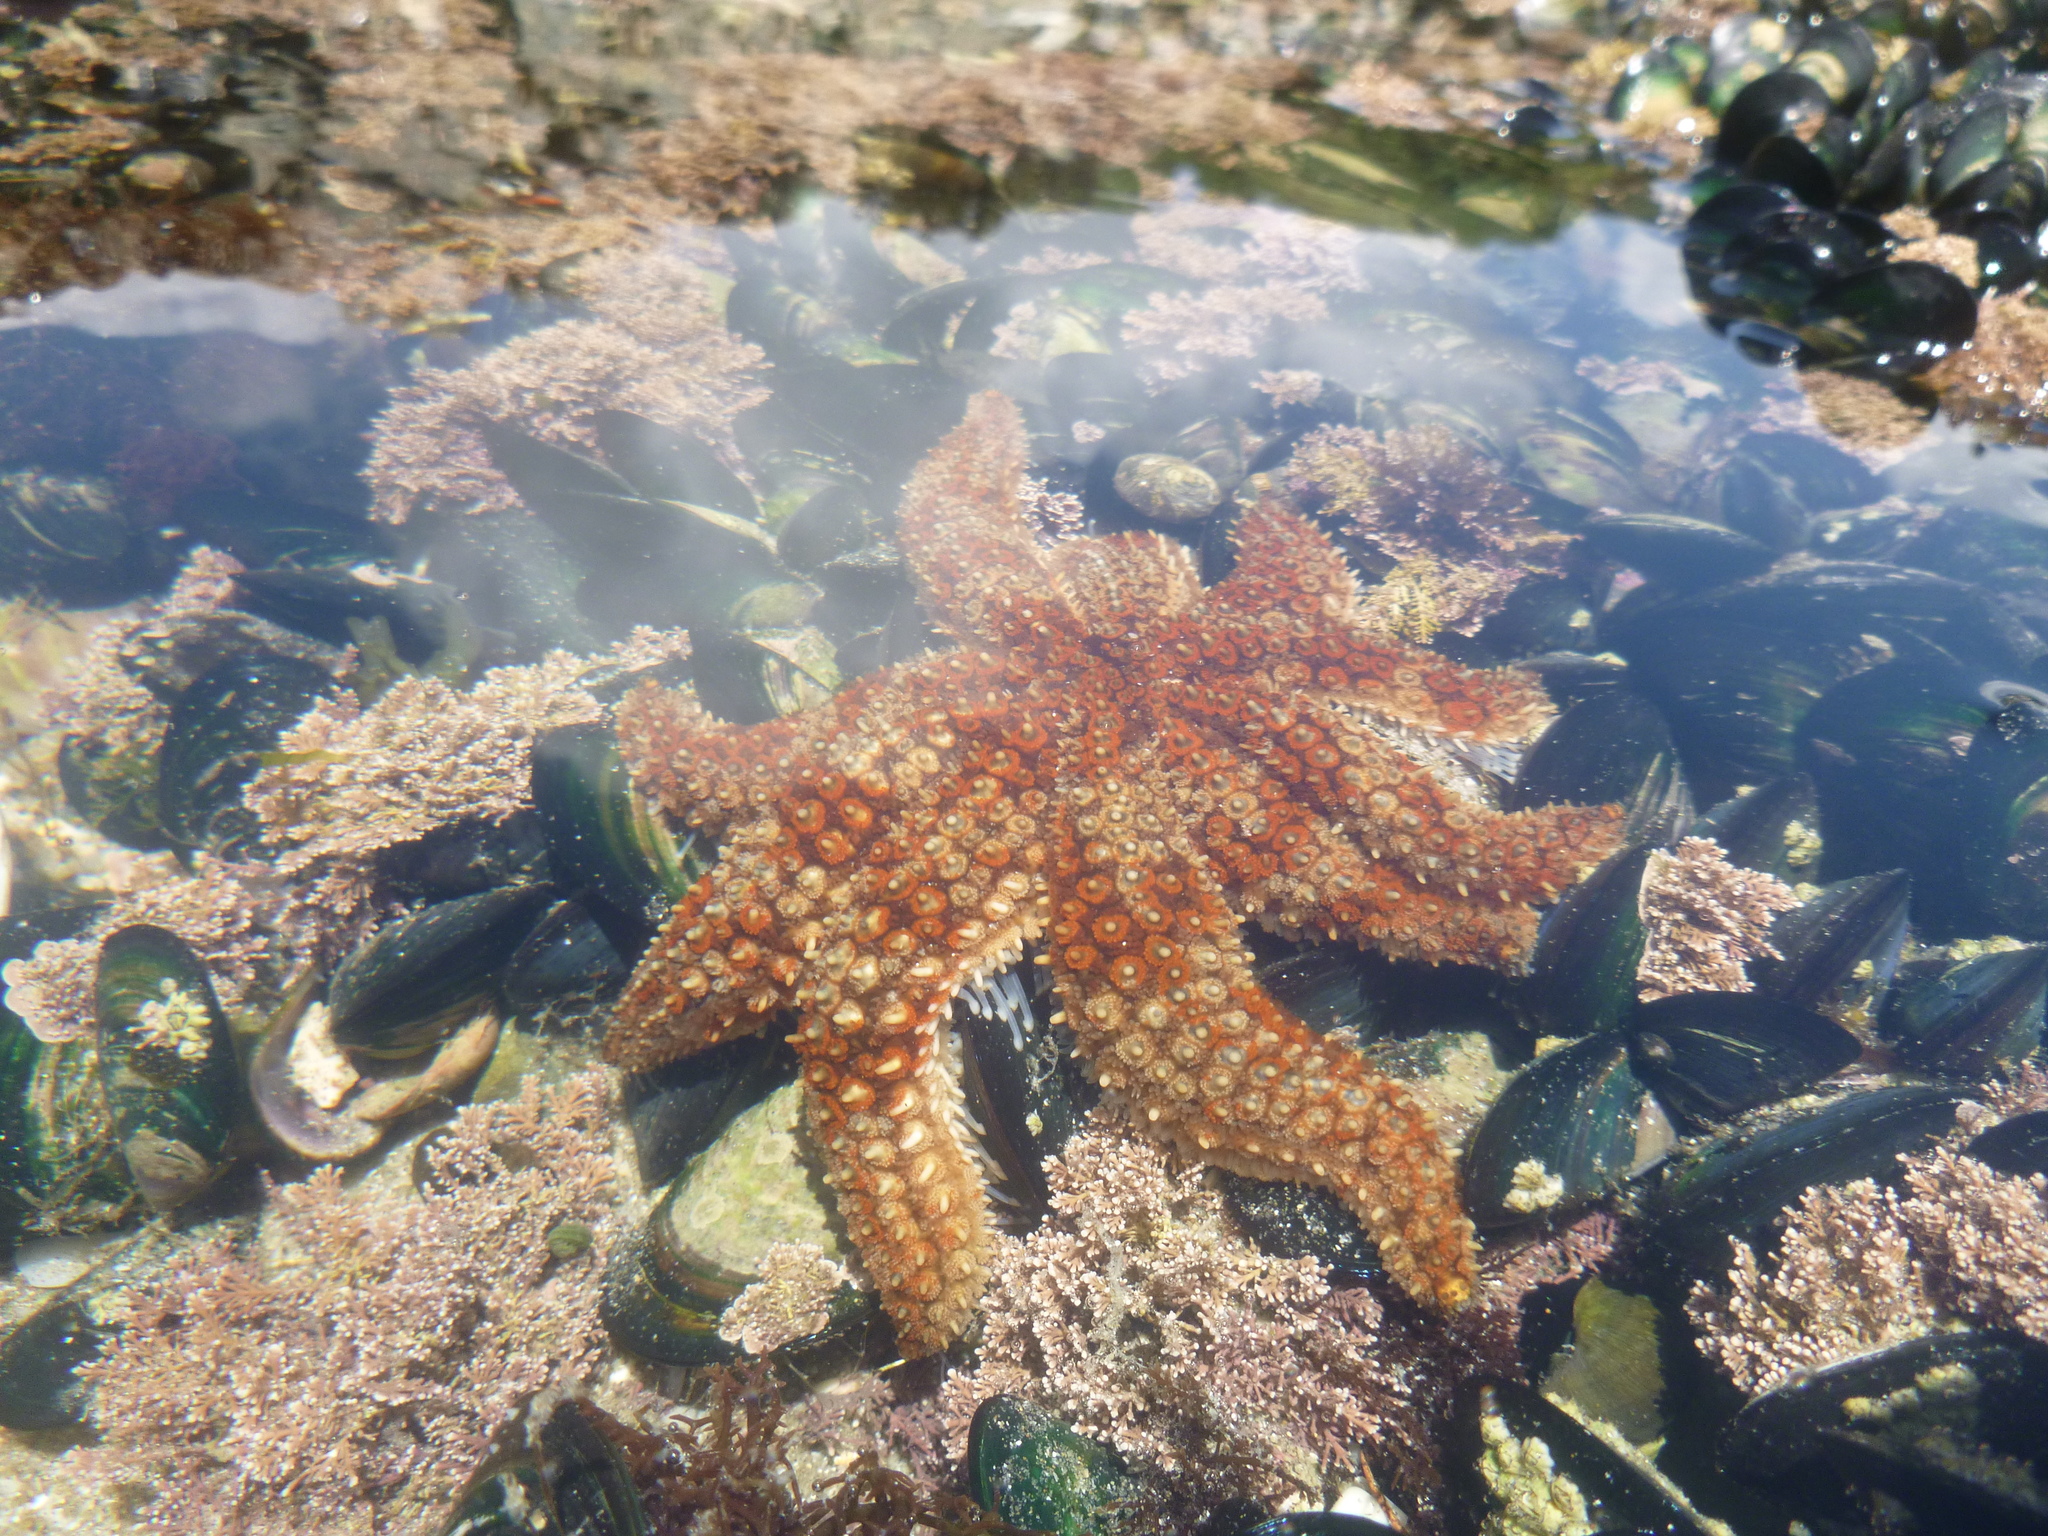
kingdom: Animalia
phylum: Echinodermata
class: Asteroidea
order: Forcipulatida
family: Asteriidae
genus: Coscinasterias
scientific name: Coscinasterias muricata
